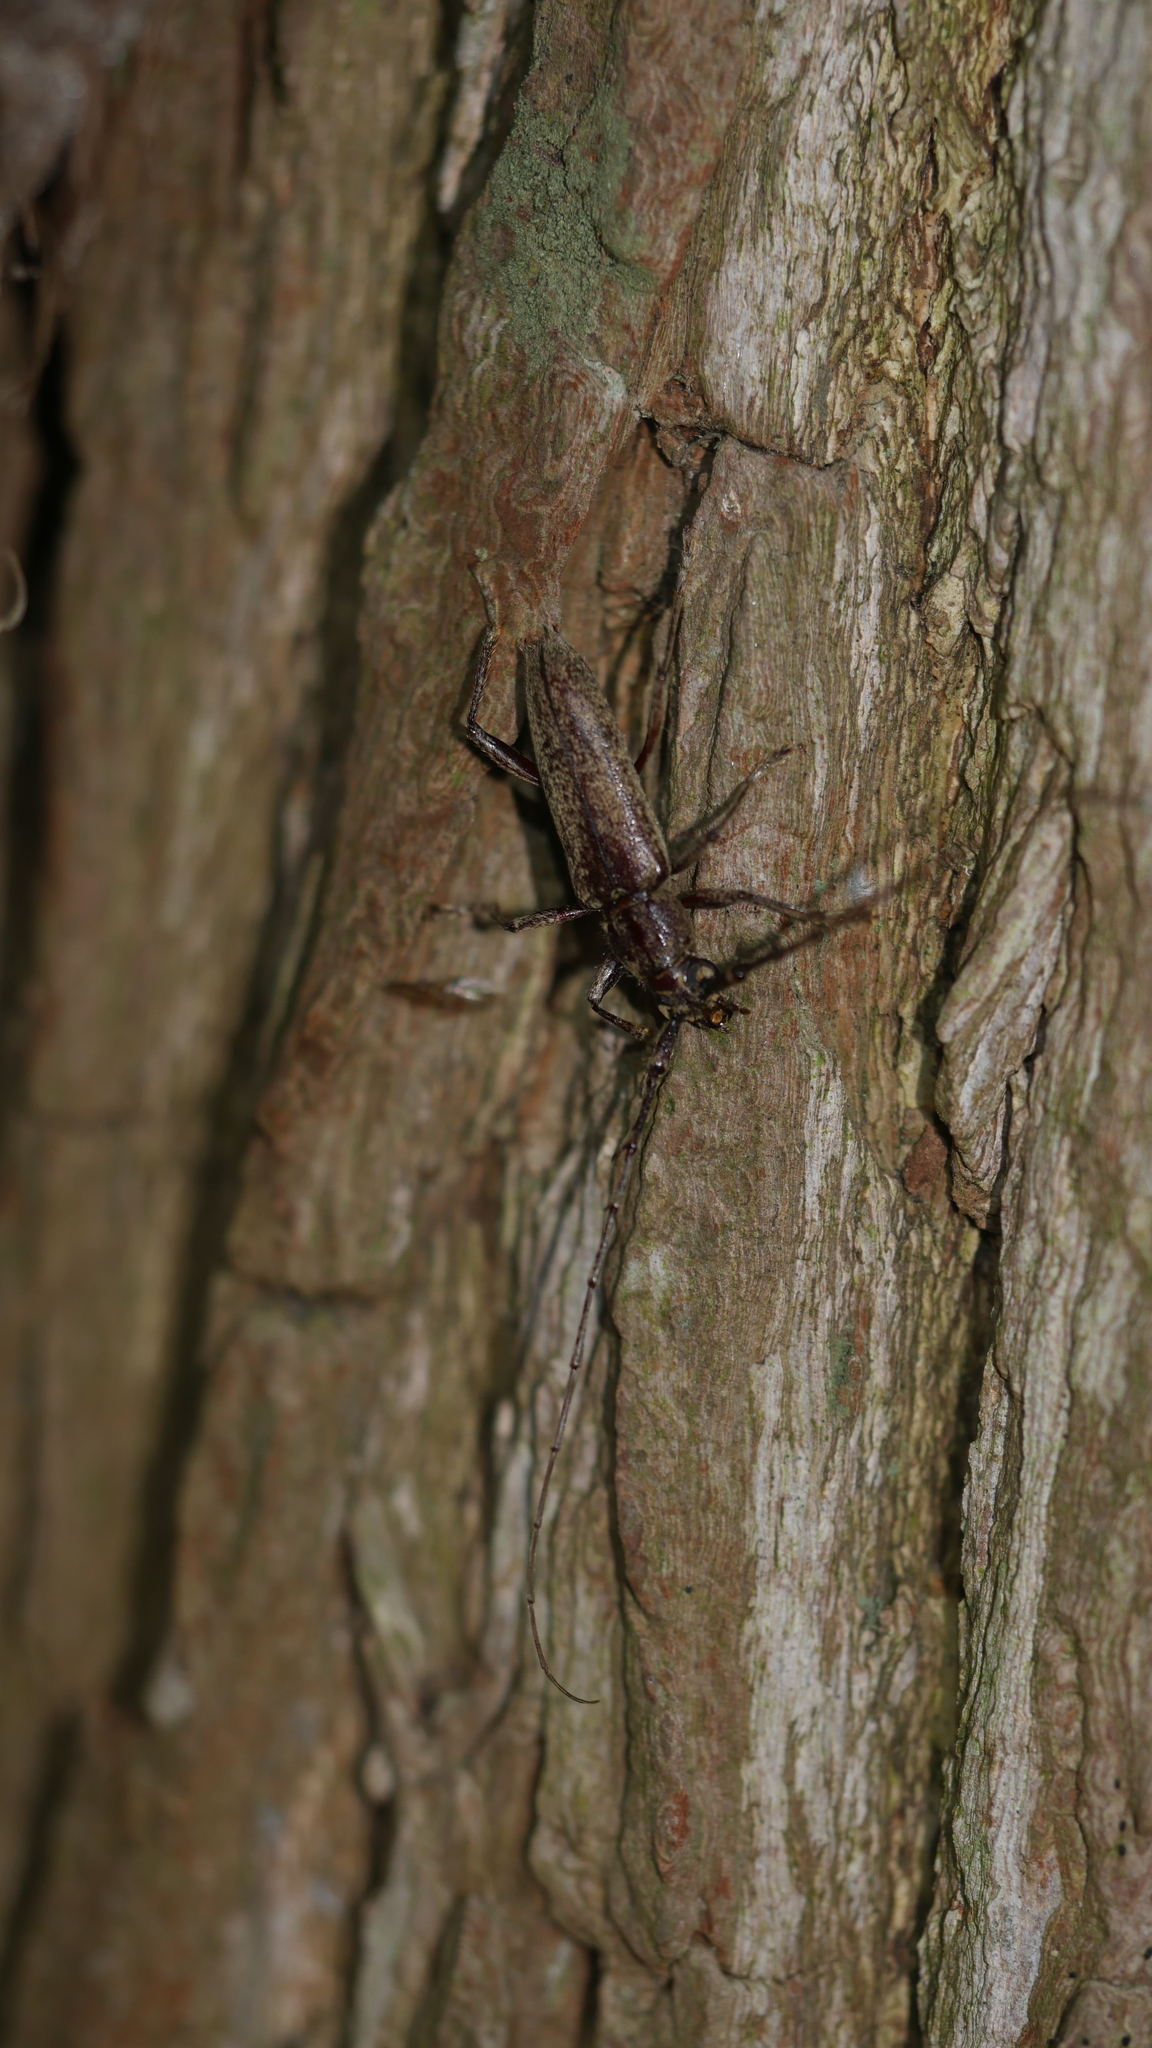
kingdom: Animalia
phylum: Arthropoda
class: Insecta
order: Coleoptera
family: Cerambycidae
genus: Elaphidion
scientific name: Elaphidion mucronatum
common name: Spined oak borer
